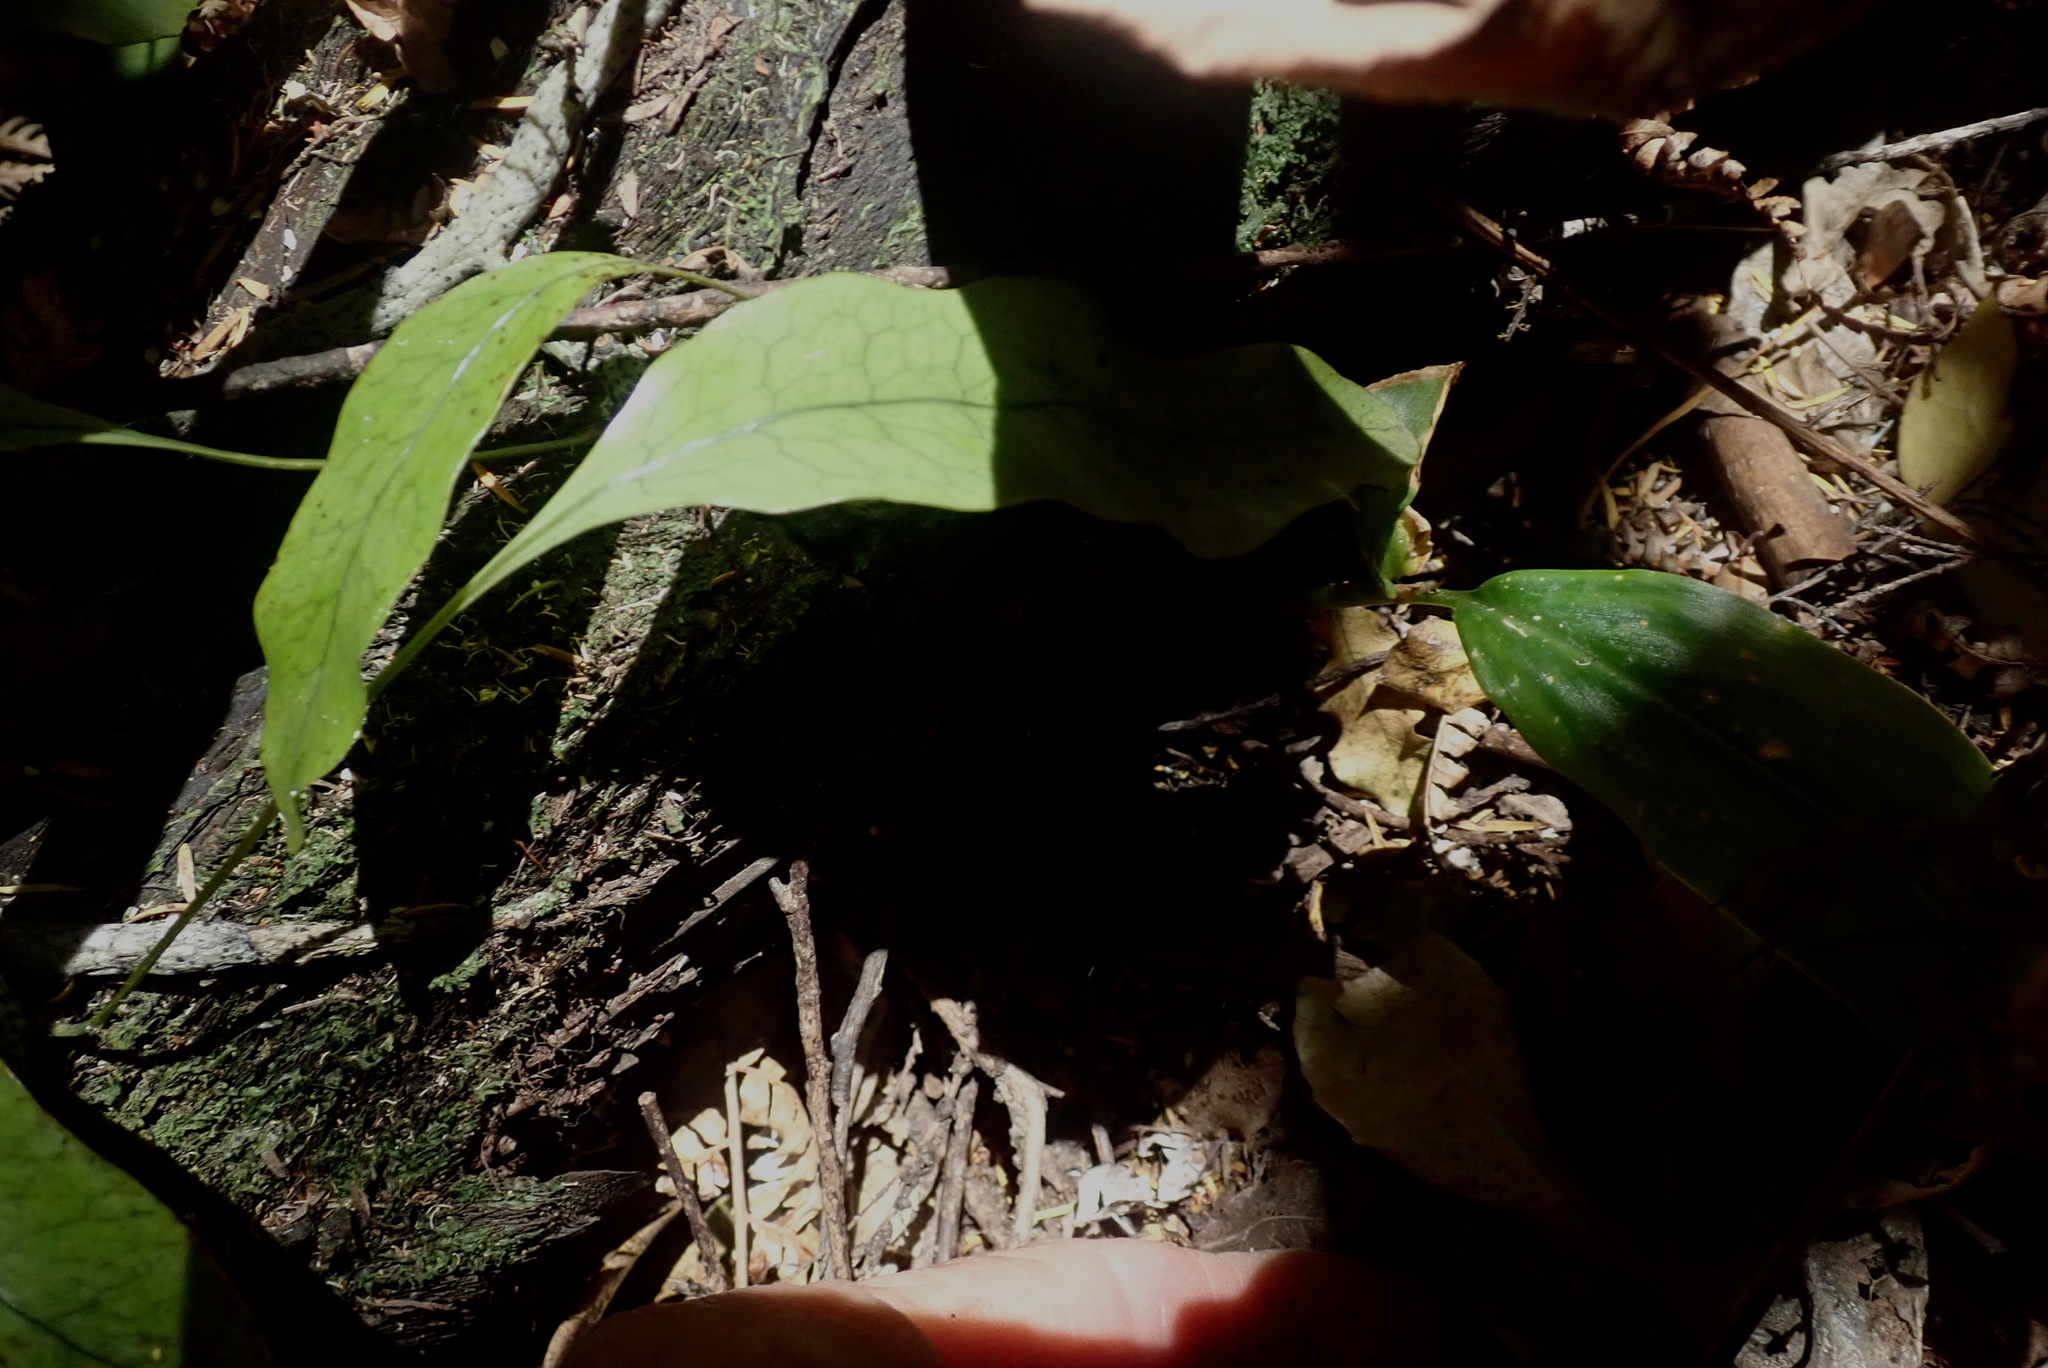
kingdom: Plantae
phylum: Tracheophyta
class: Polypodiopsida
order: Polypodiales
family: Polypodiaceae
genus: Lecanopteris
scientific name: Lecanopteris pustulata
